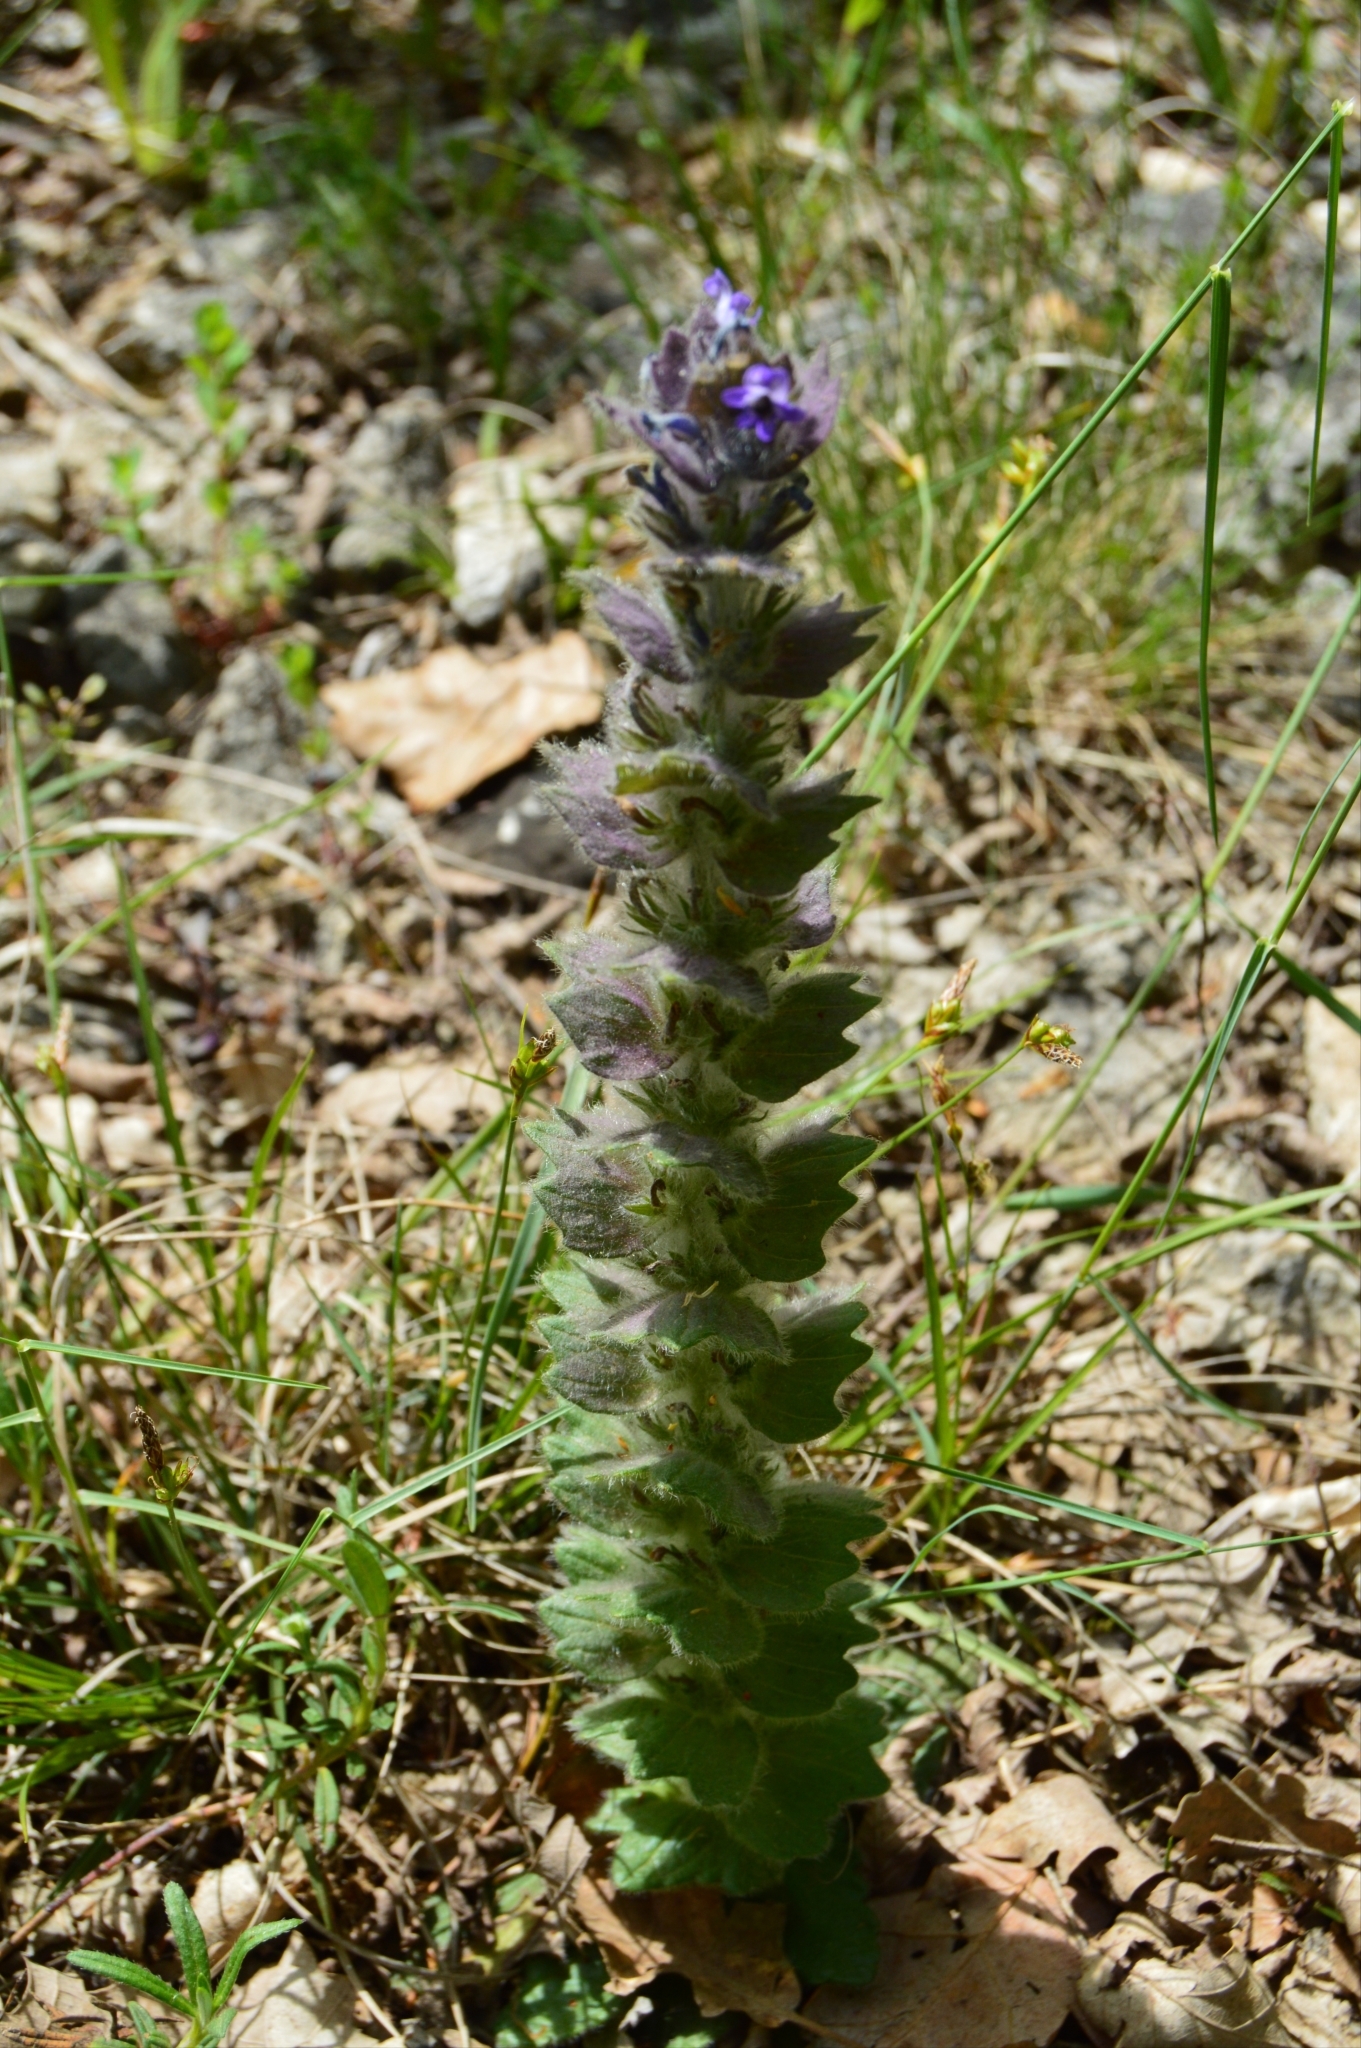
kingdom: Plantae
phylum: Tracheophyta
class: Magnoliopsida
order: Lamiales
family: Lamiaceae
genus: Ajuga
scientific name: Ajuga orientalis
